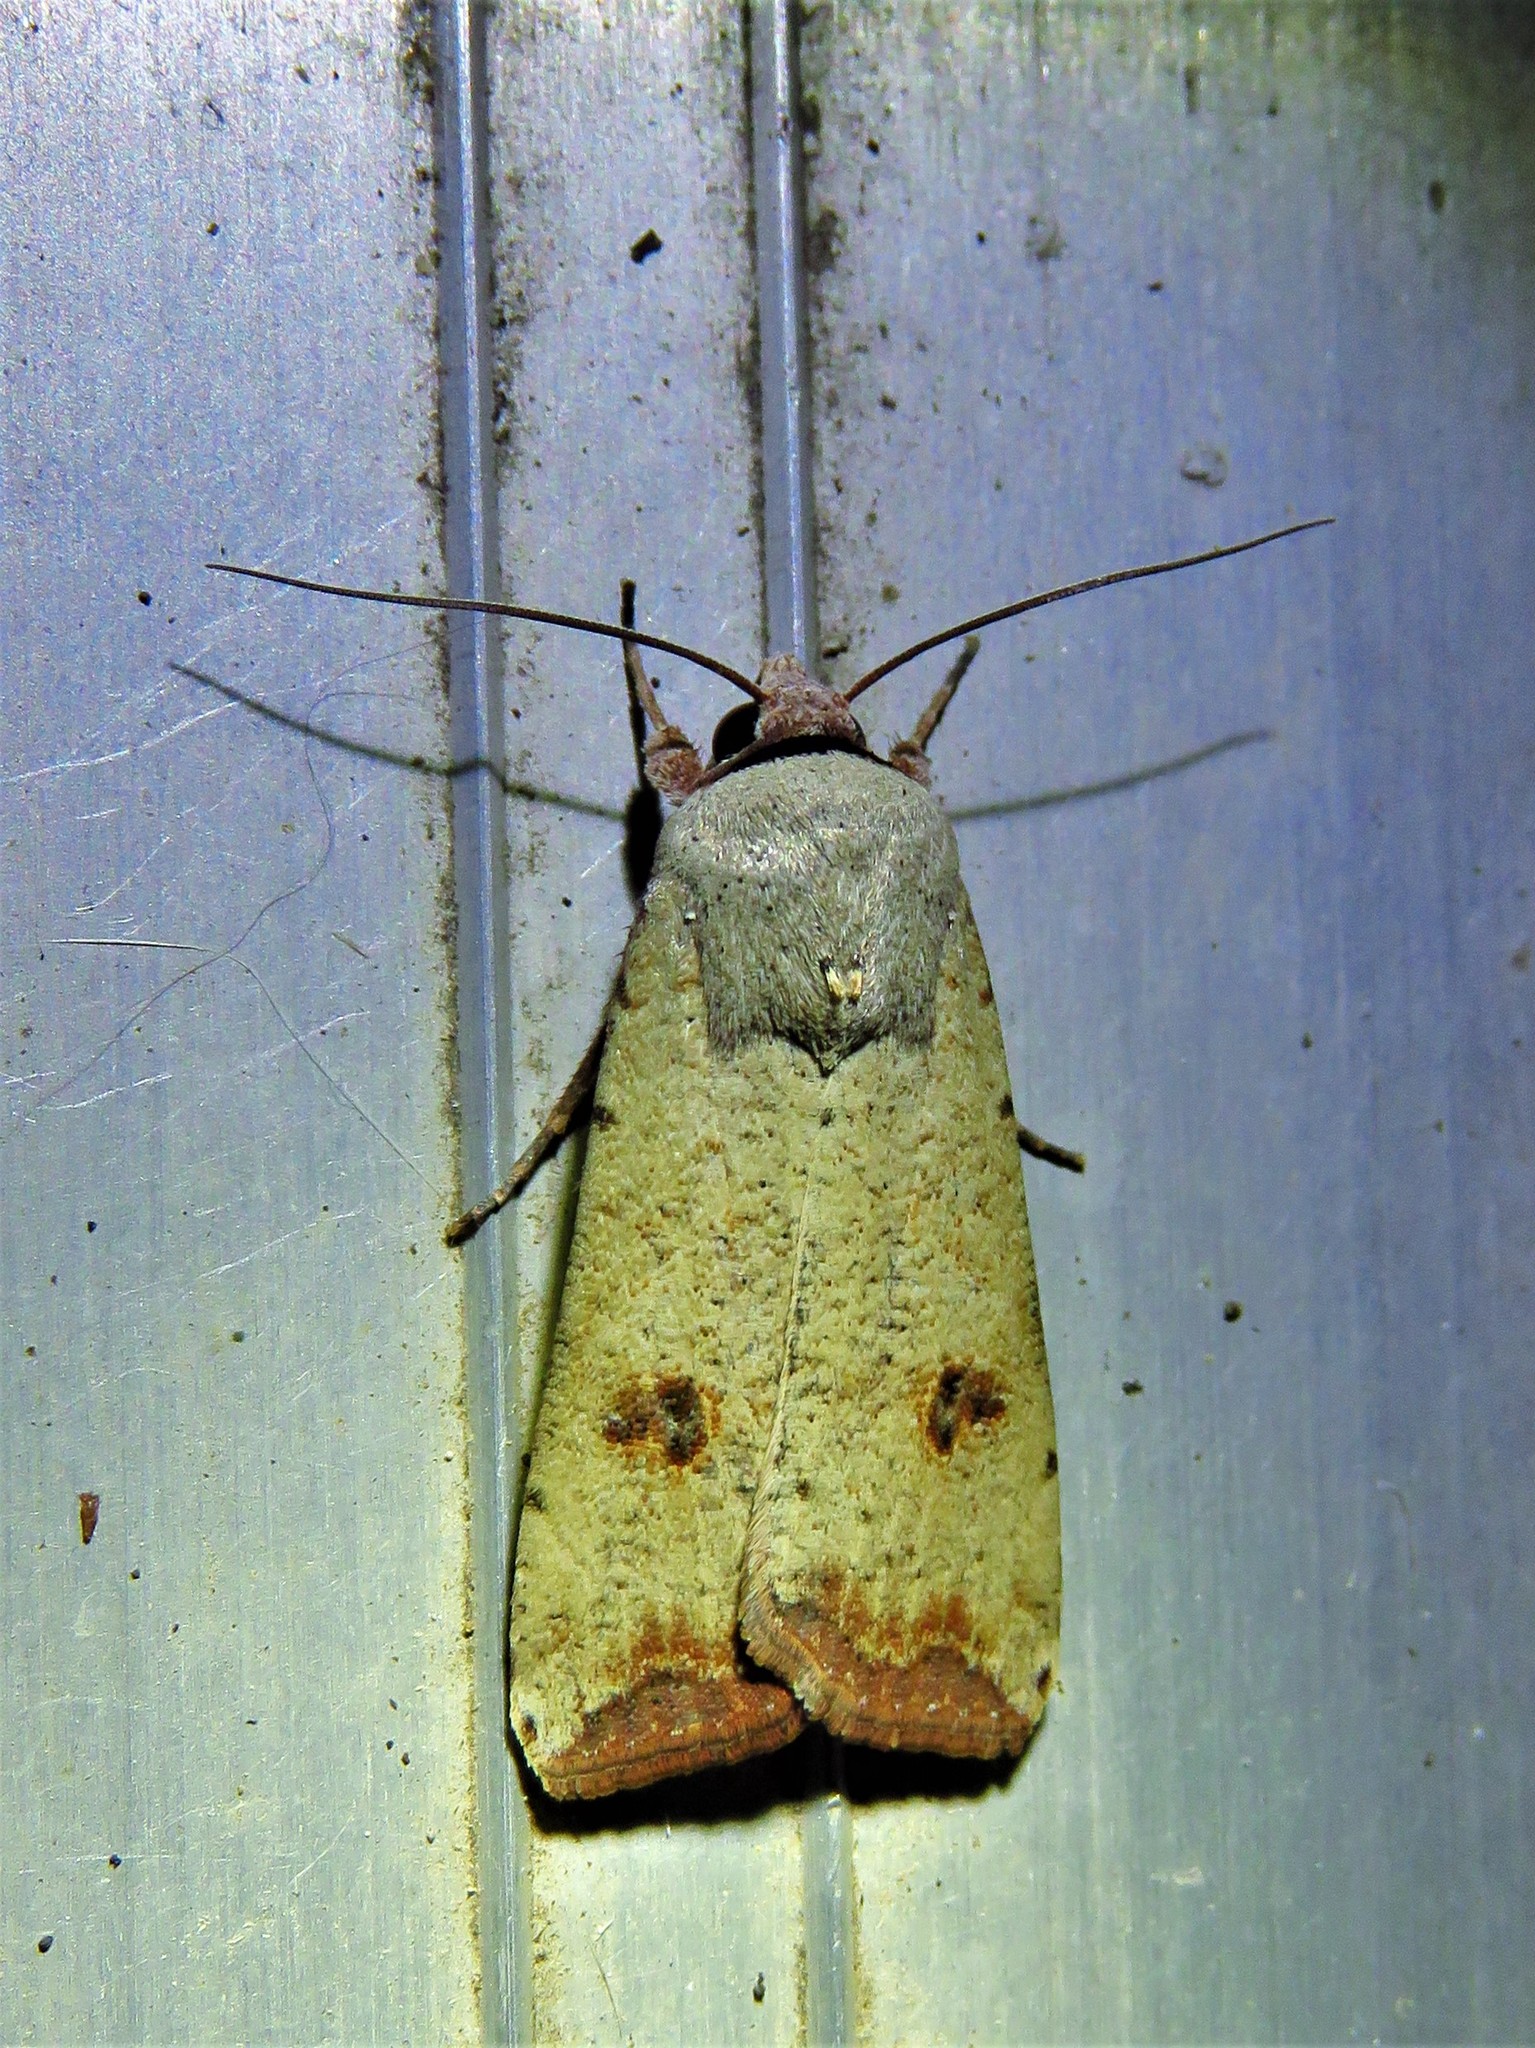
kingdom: Animalia
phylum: Arthropoda
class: Insecta
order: Lepidoptera
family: Noctuidae
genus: Anicla
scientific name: Anicla infecta
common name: Green cutworm
